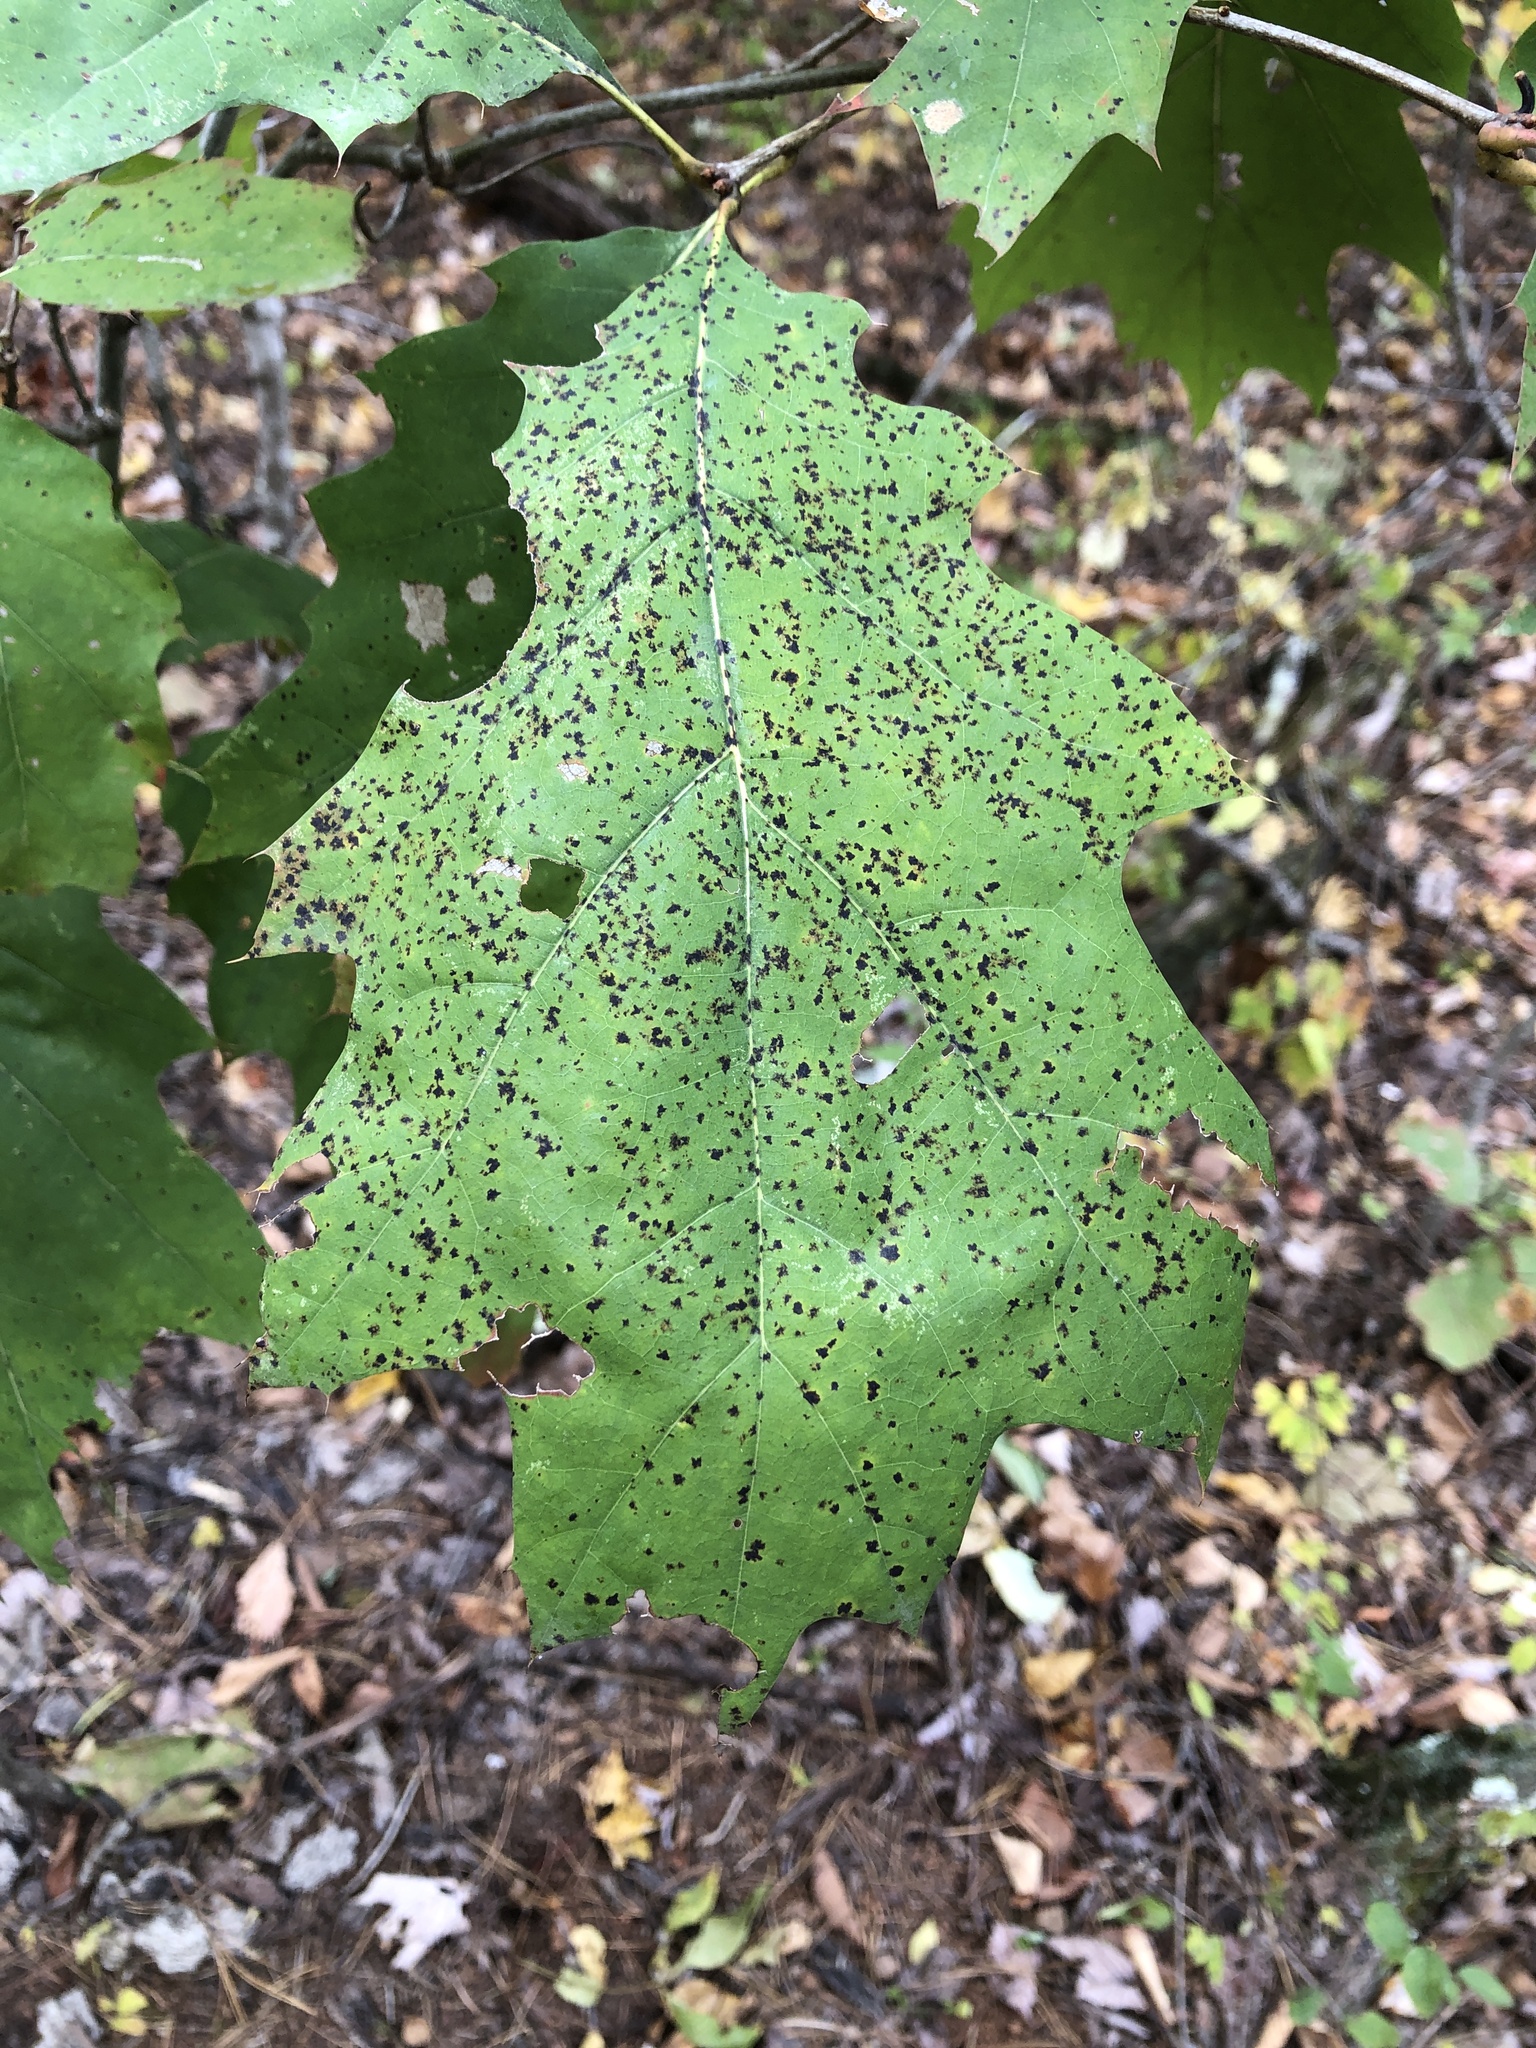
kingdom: Plantae
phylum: Tracheophyta
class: Magnoliopsida
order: Fagales
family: Fagaceae
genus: Quercus
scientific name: Quercus rubra
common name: Red oak
